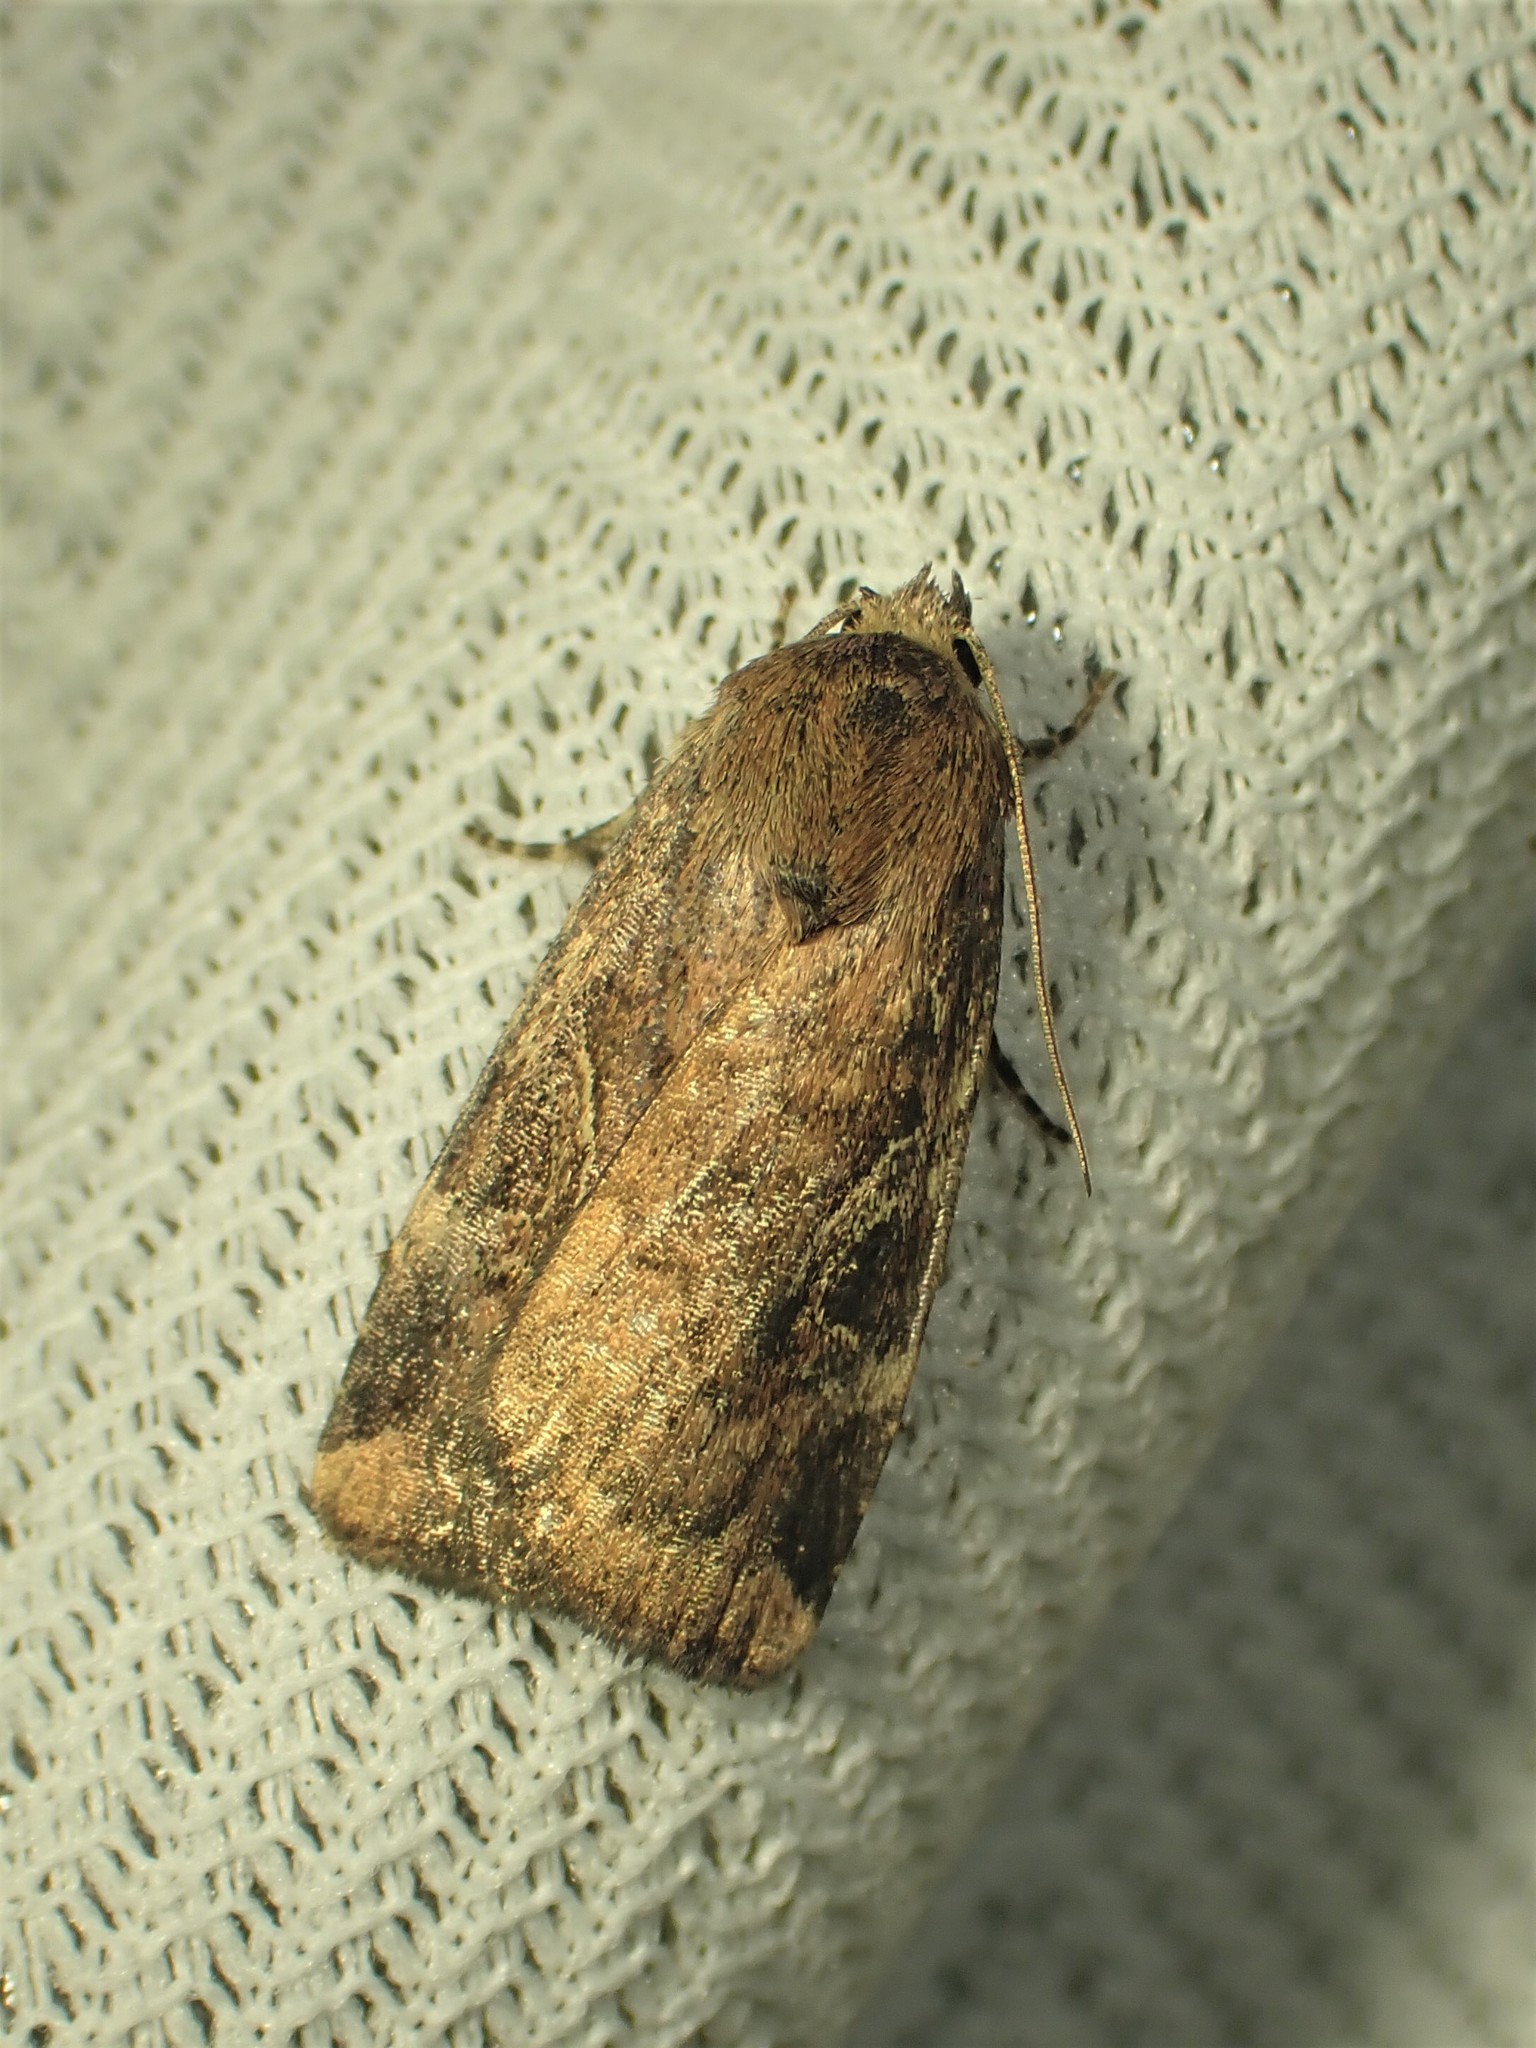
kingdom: Animalia
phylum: Arthropoda
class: Insecta
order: Lepidoptera
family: Noctuidae
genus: Cryptocala
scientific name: Cryptocala acadiensis
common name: Catocaline dart
